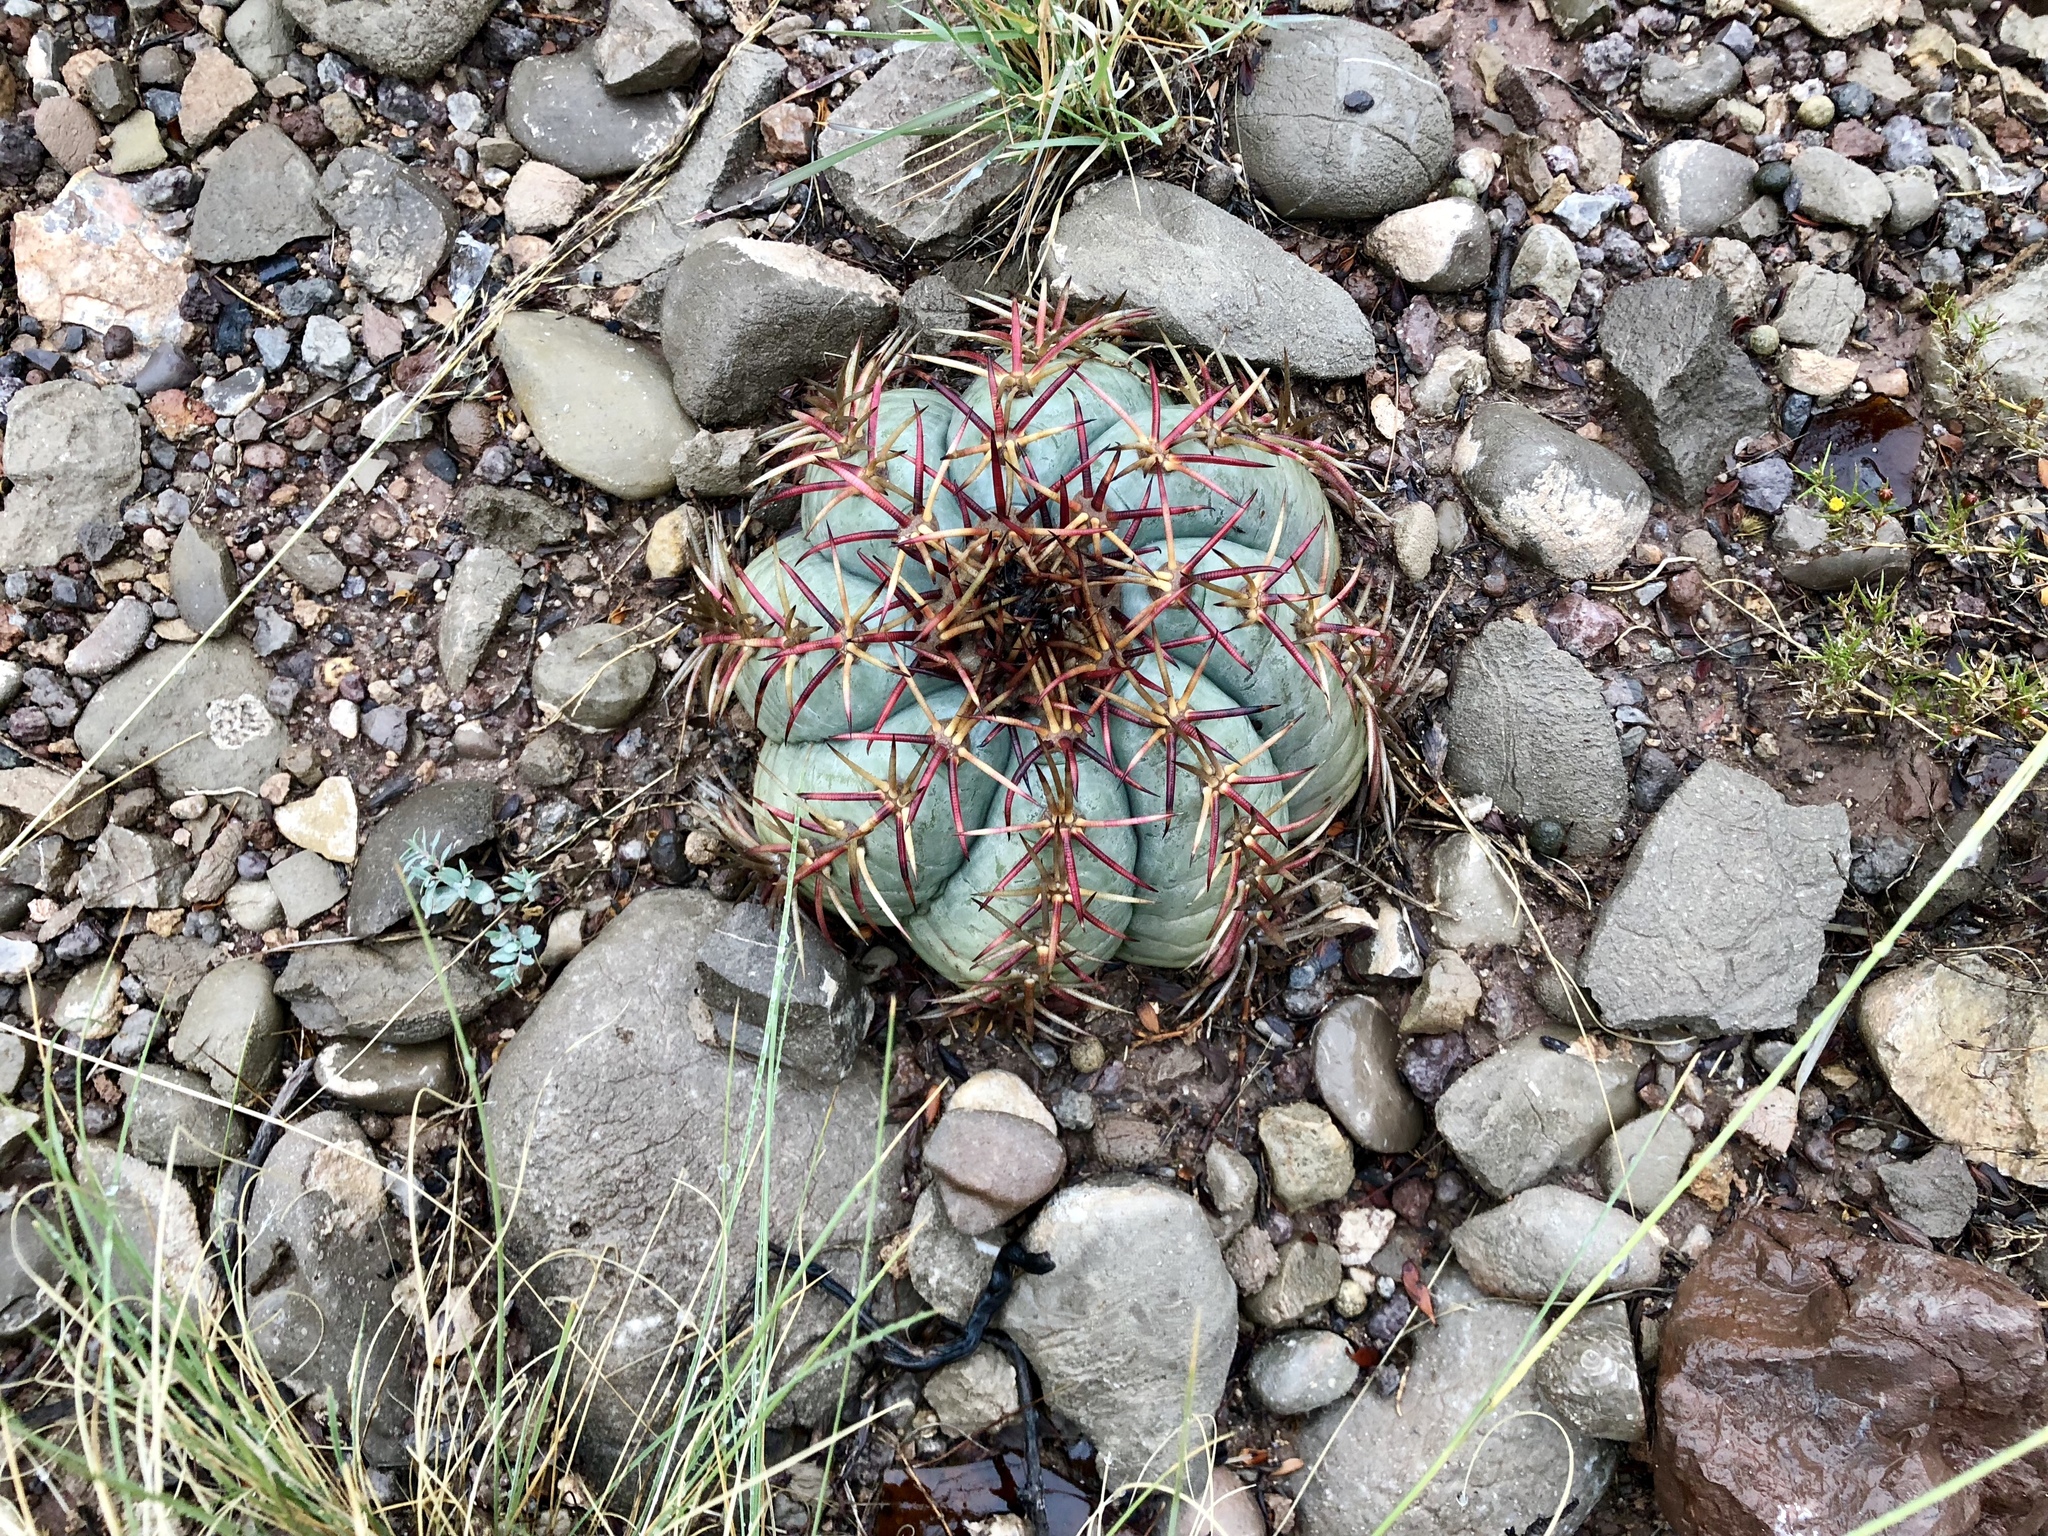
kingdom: Plantae
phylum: Tracheophyta
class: Magnoliopsida
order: Caryophyllales
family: Cactaceae
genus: Echinocactus
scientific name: Echinocactus horizonthalonius
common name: Devilshead
